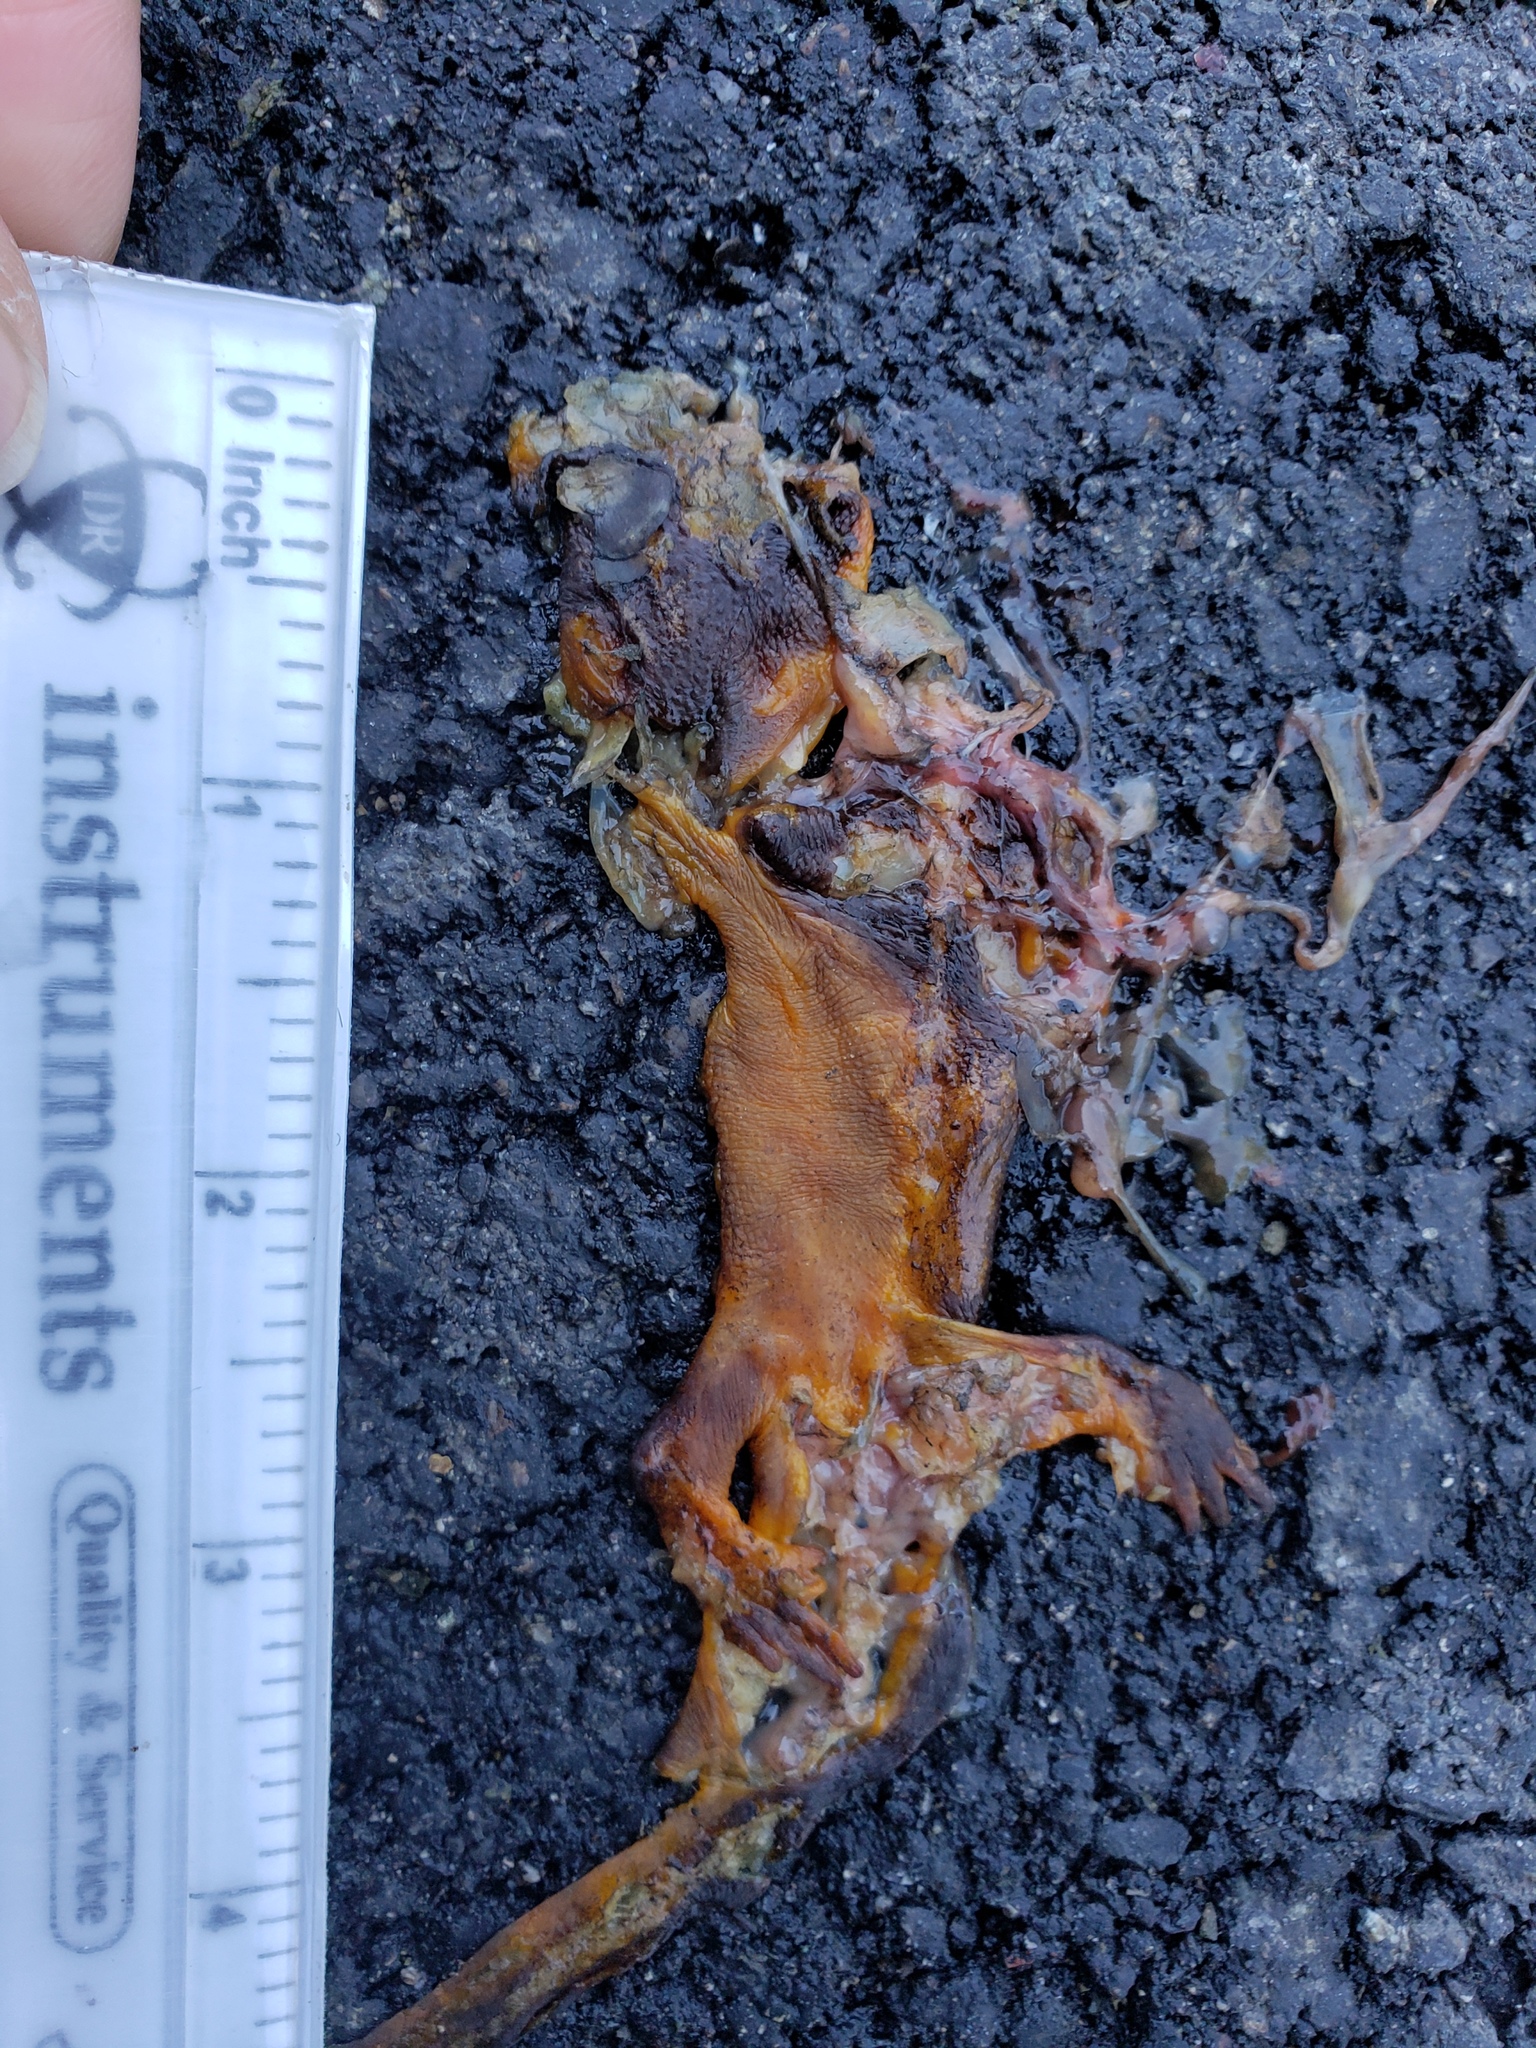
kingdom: Animalia
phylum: Chordata
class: Amphibia
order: Caudata
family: Salamandridae
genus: Taricha
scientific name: Taricha
